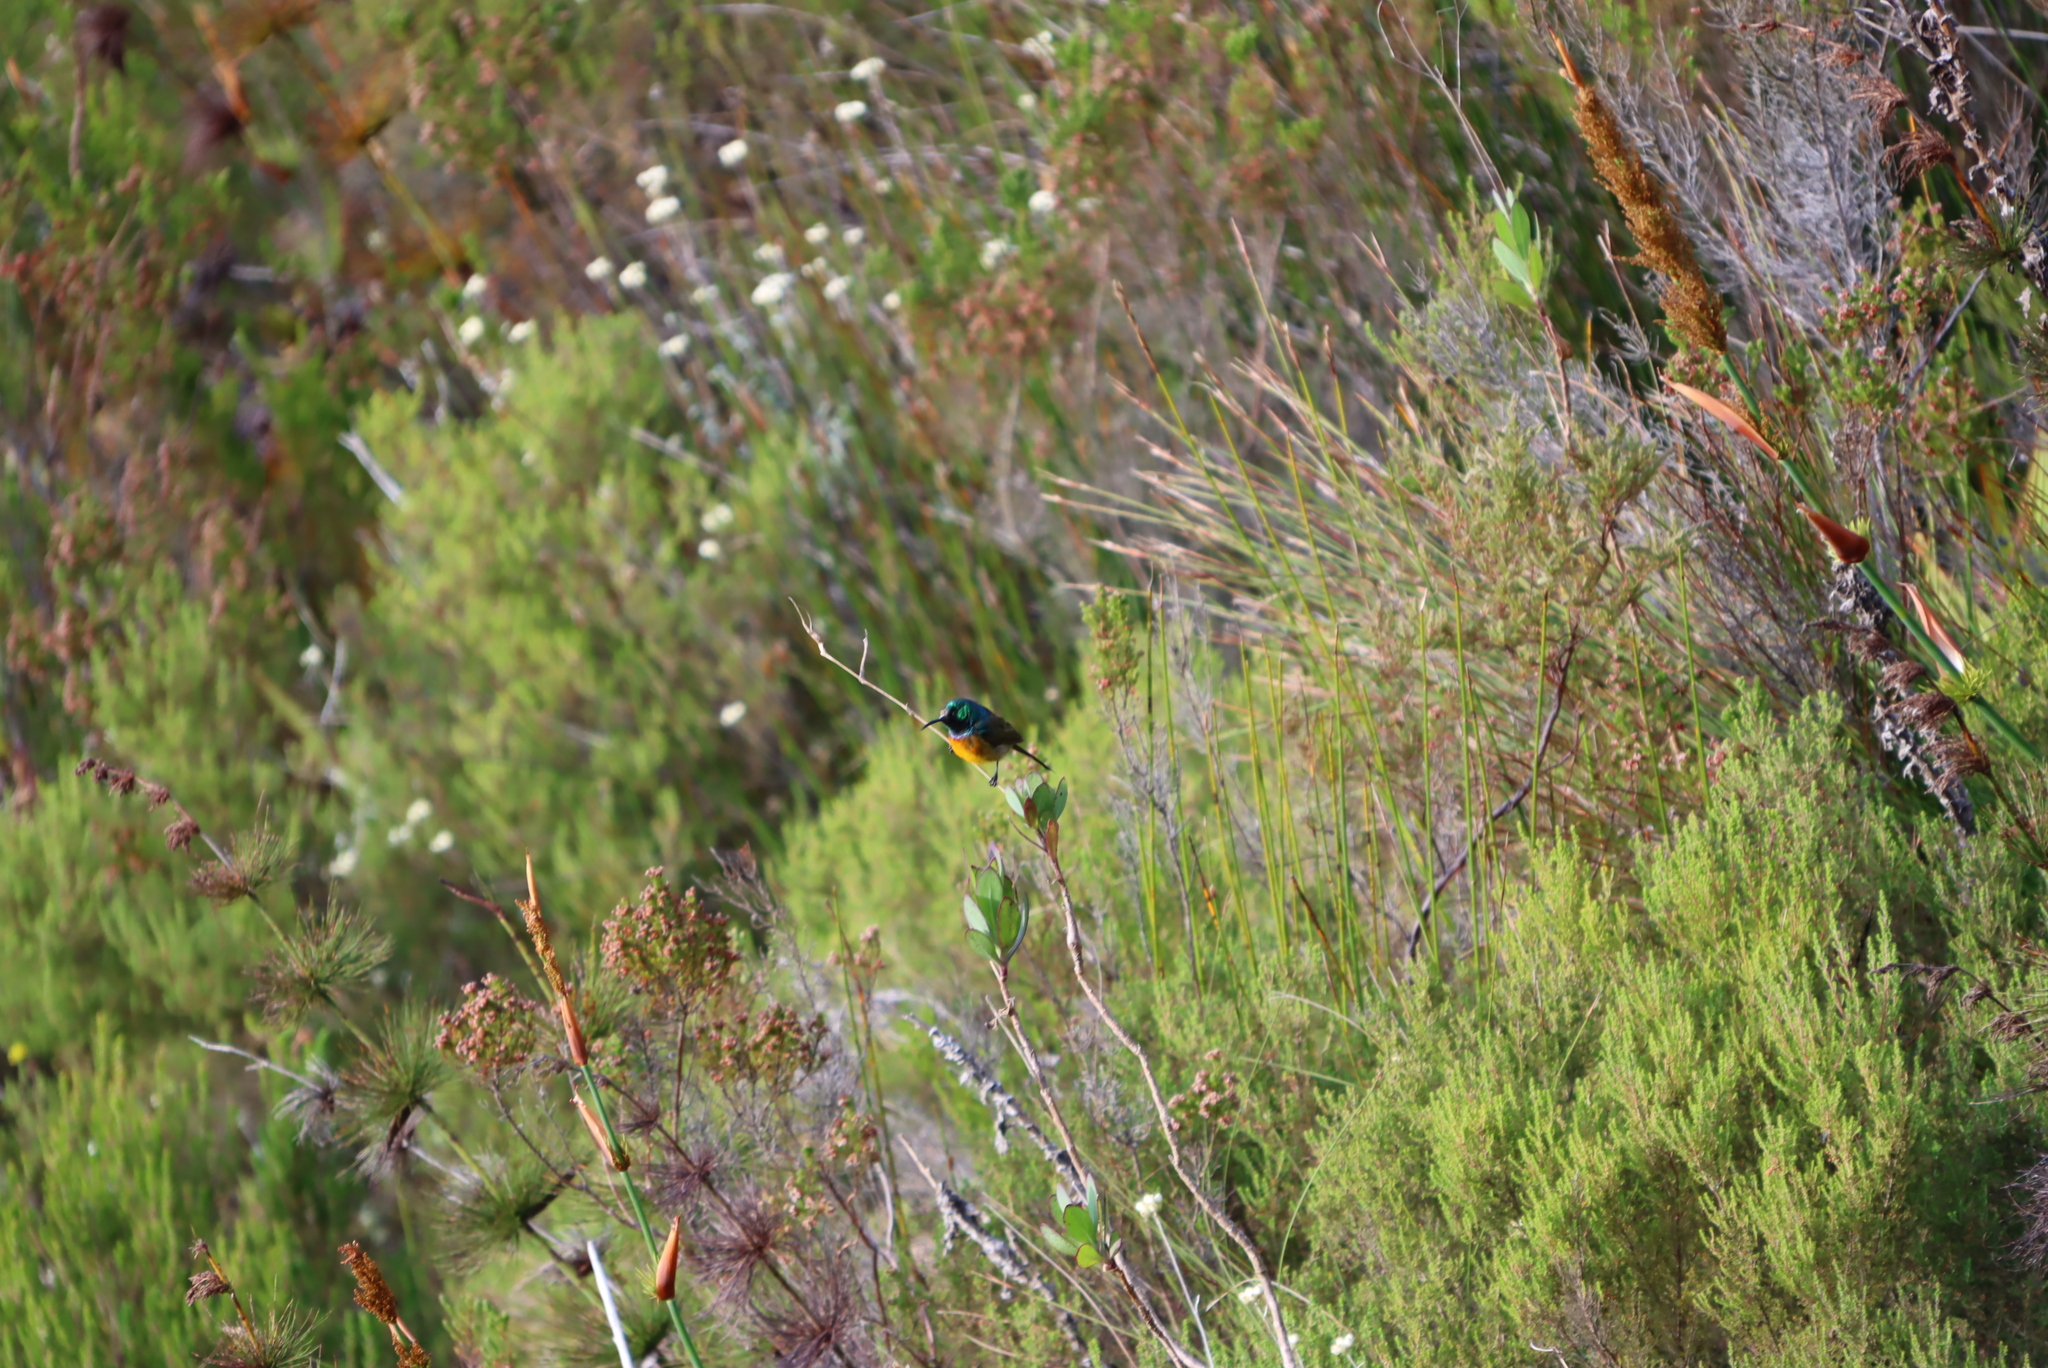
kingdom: Animalia
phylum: Chordata
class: Aves
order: Passeriformes
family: Nectariniidae
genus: Anthobaphes
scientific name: Anthobaphes violacea
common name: Orange-breasted sunbird
